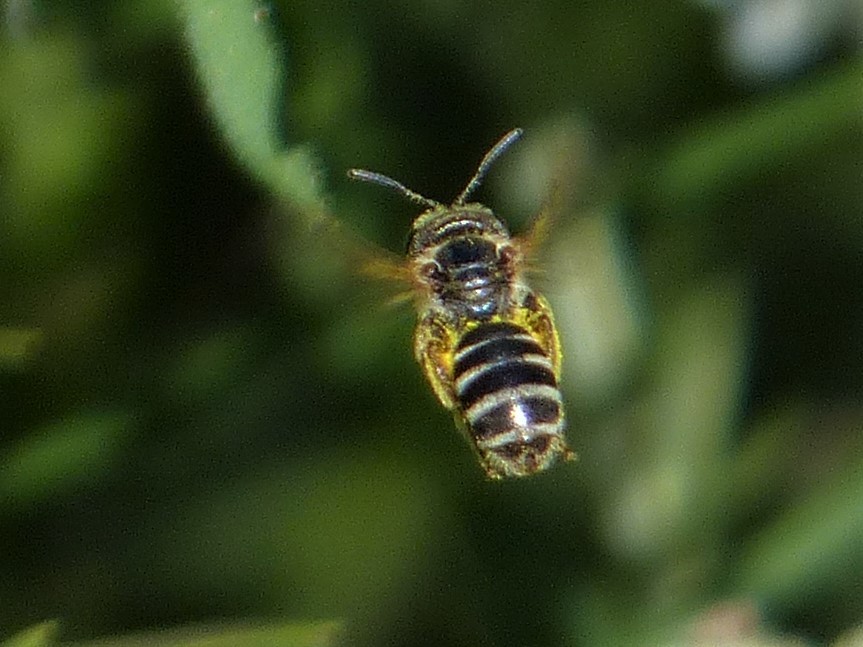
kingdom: Animalia
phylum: Arthropoda
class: Insecta
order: Hymenoptera
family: Halictidae
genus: Halictus
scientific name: Halictus ligatus
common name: Ligated furrow bee
